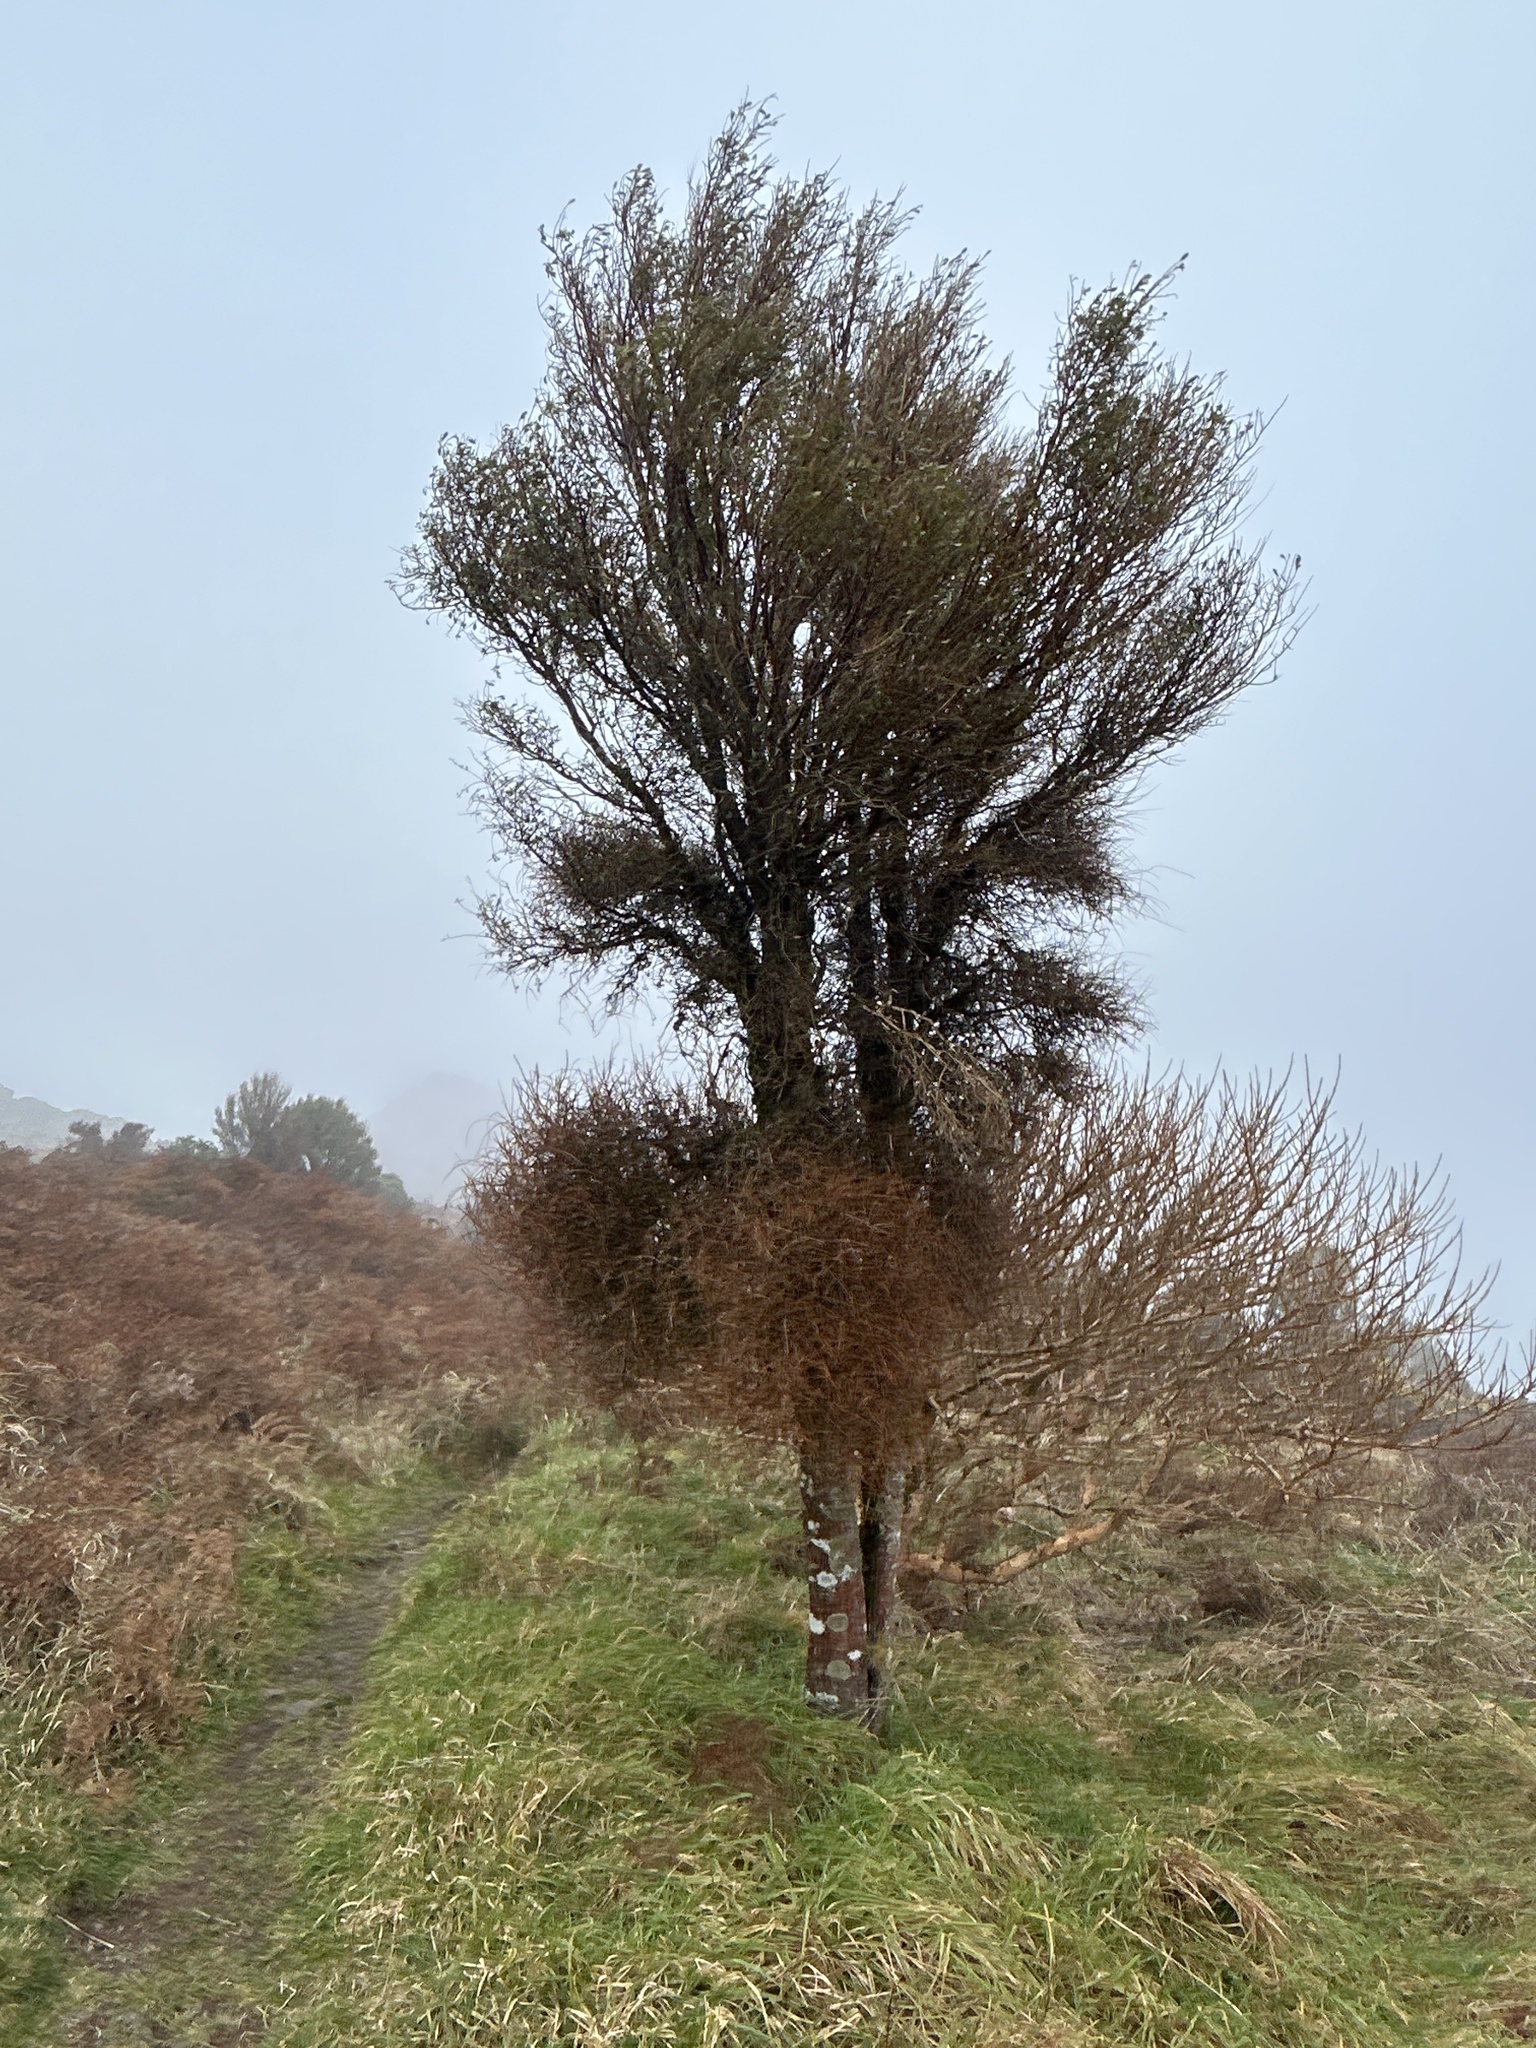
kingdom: Plantae
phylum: Tracheophyta
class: Magnoliopsida
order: Malvales
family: Malvaceae
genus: Hoheria
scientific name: Hoheria angustifolia
